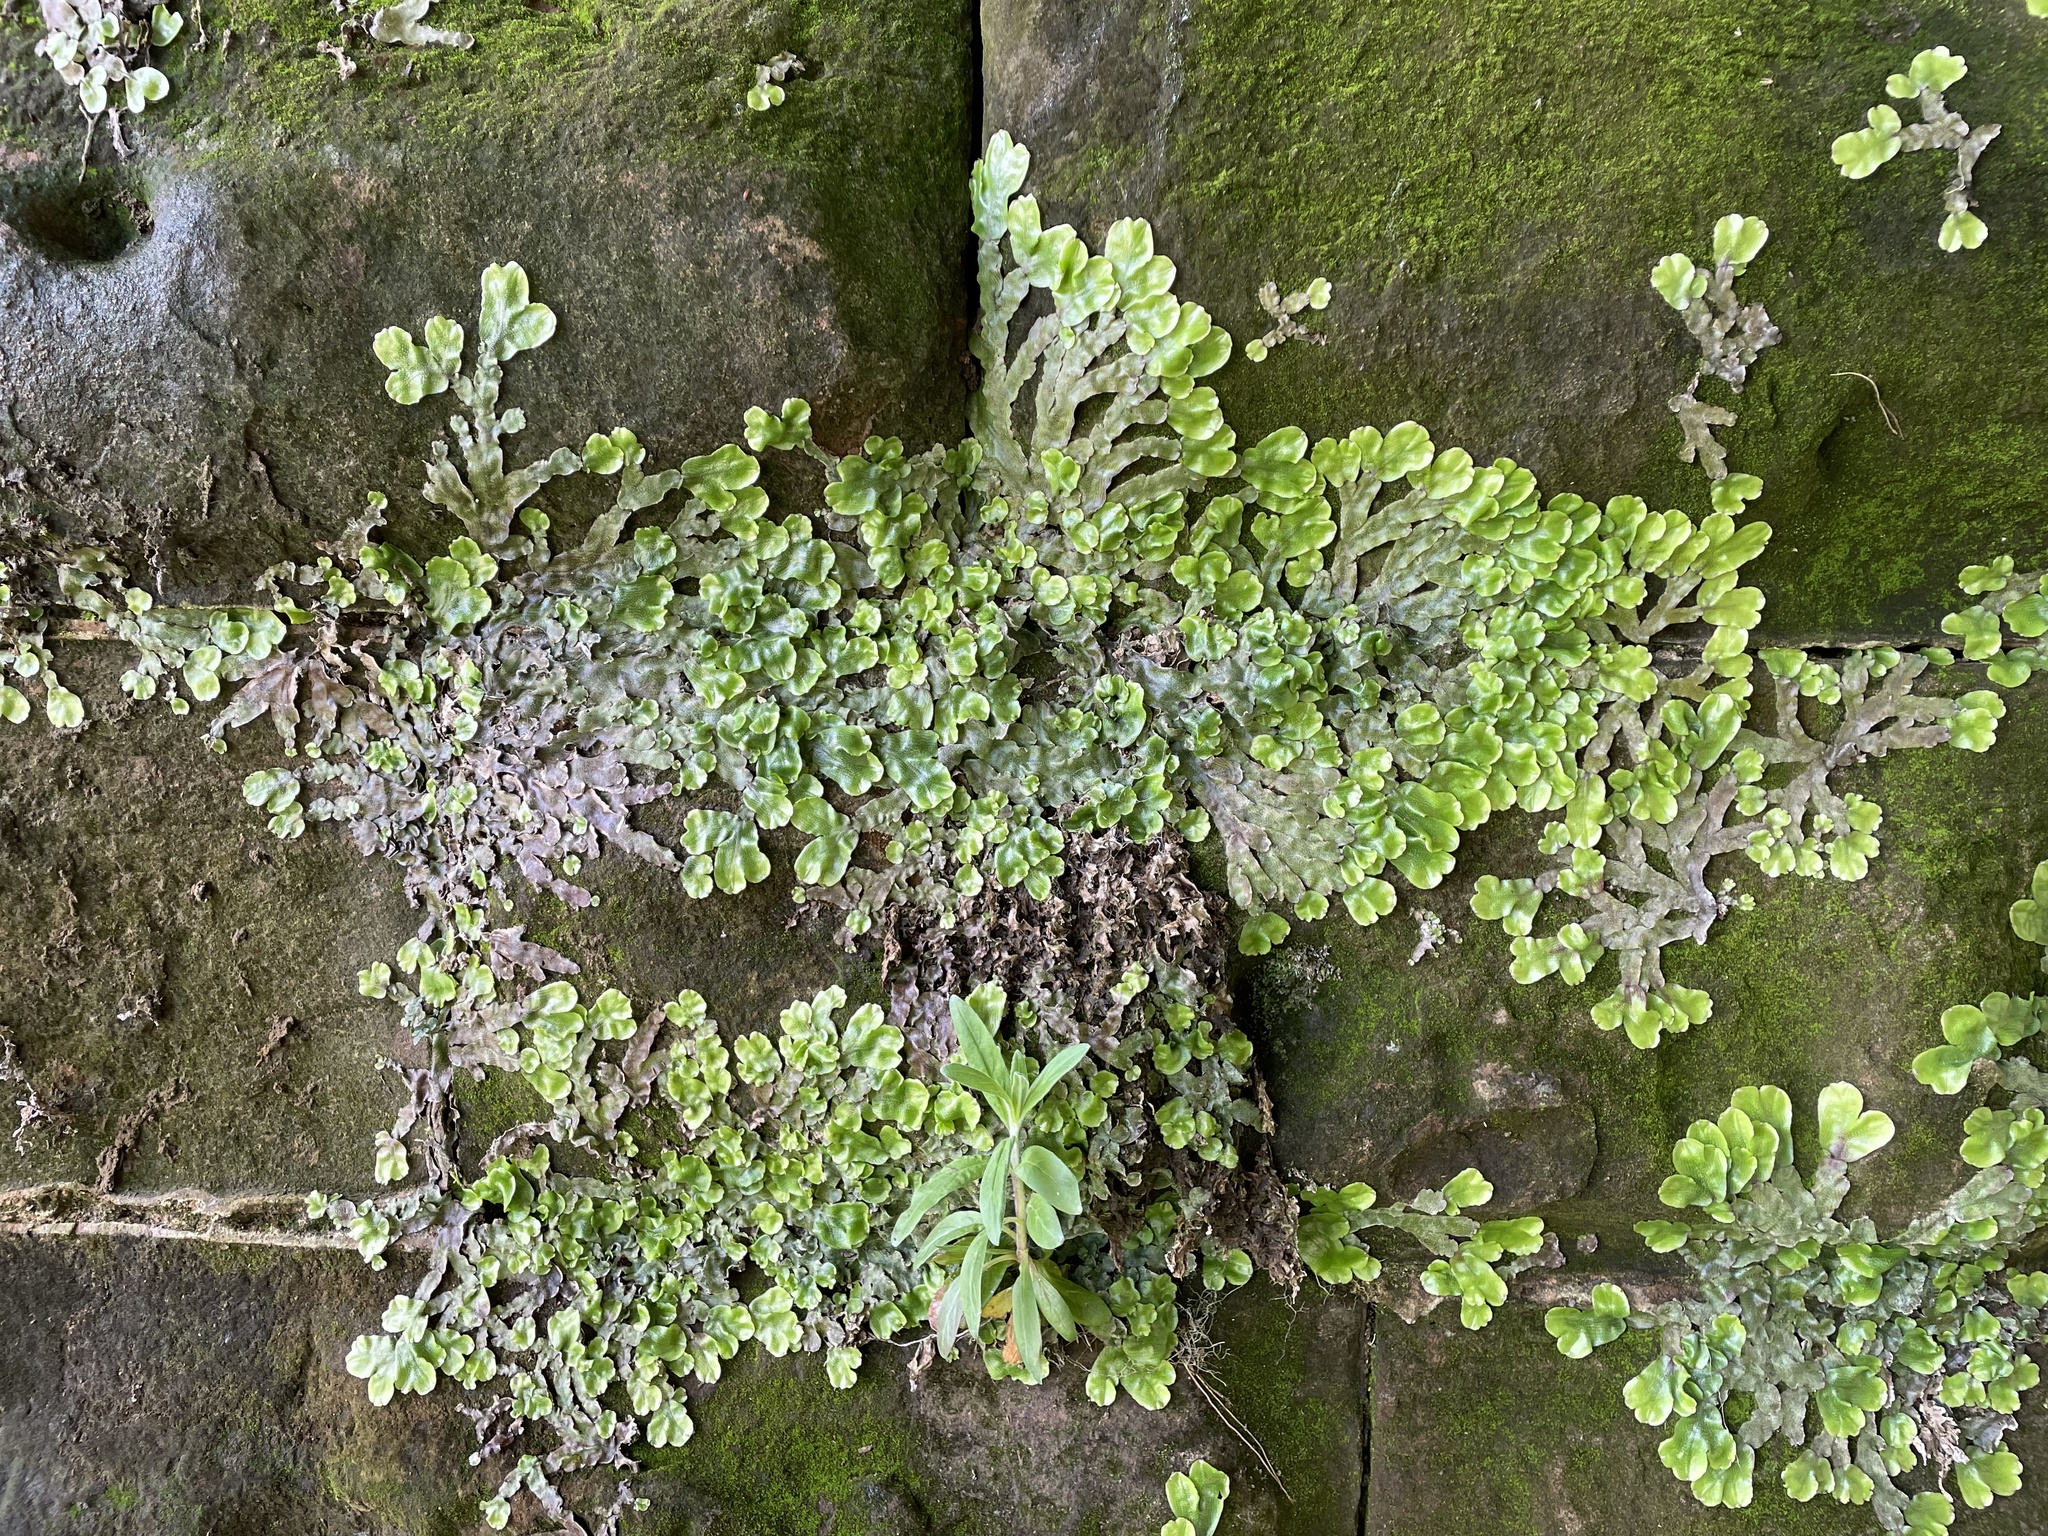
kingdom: Plantae
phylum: Marchantiophyta
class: Marchantiopsida
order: Marchantiales
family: Conocephalaceae
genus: Conocephalum
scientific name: Conocephalum conicum
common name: Great scented liverwort
